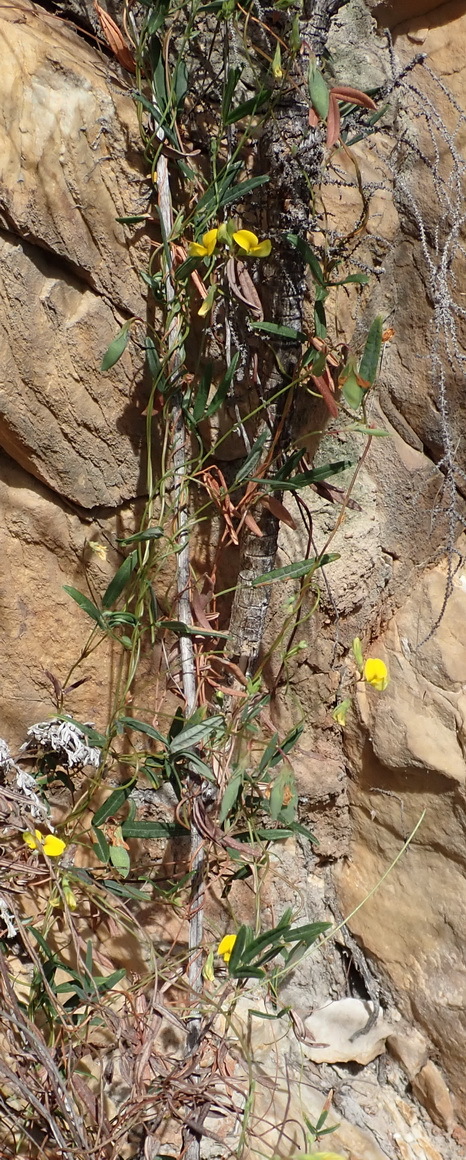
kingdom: Plantae
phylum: Tracheophyta
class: Magnoliopsida
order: Fabales
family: Fabaceae
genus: Rhynchosia
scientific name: Rhynchosia leucoscias
